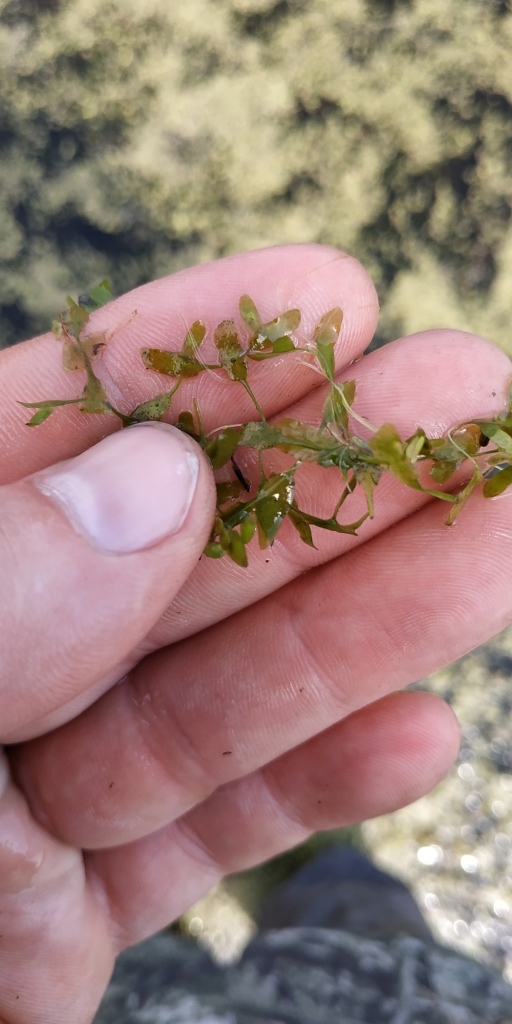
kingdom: Plantae
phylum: Tracheophyta
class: Liliopsida
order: Alismatales
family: Araceae
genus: Lemna
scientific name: Lemna trisulca
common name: Ivy-leaved duckweed
